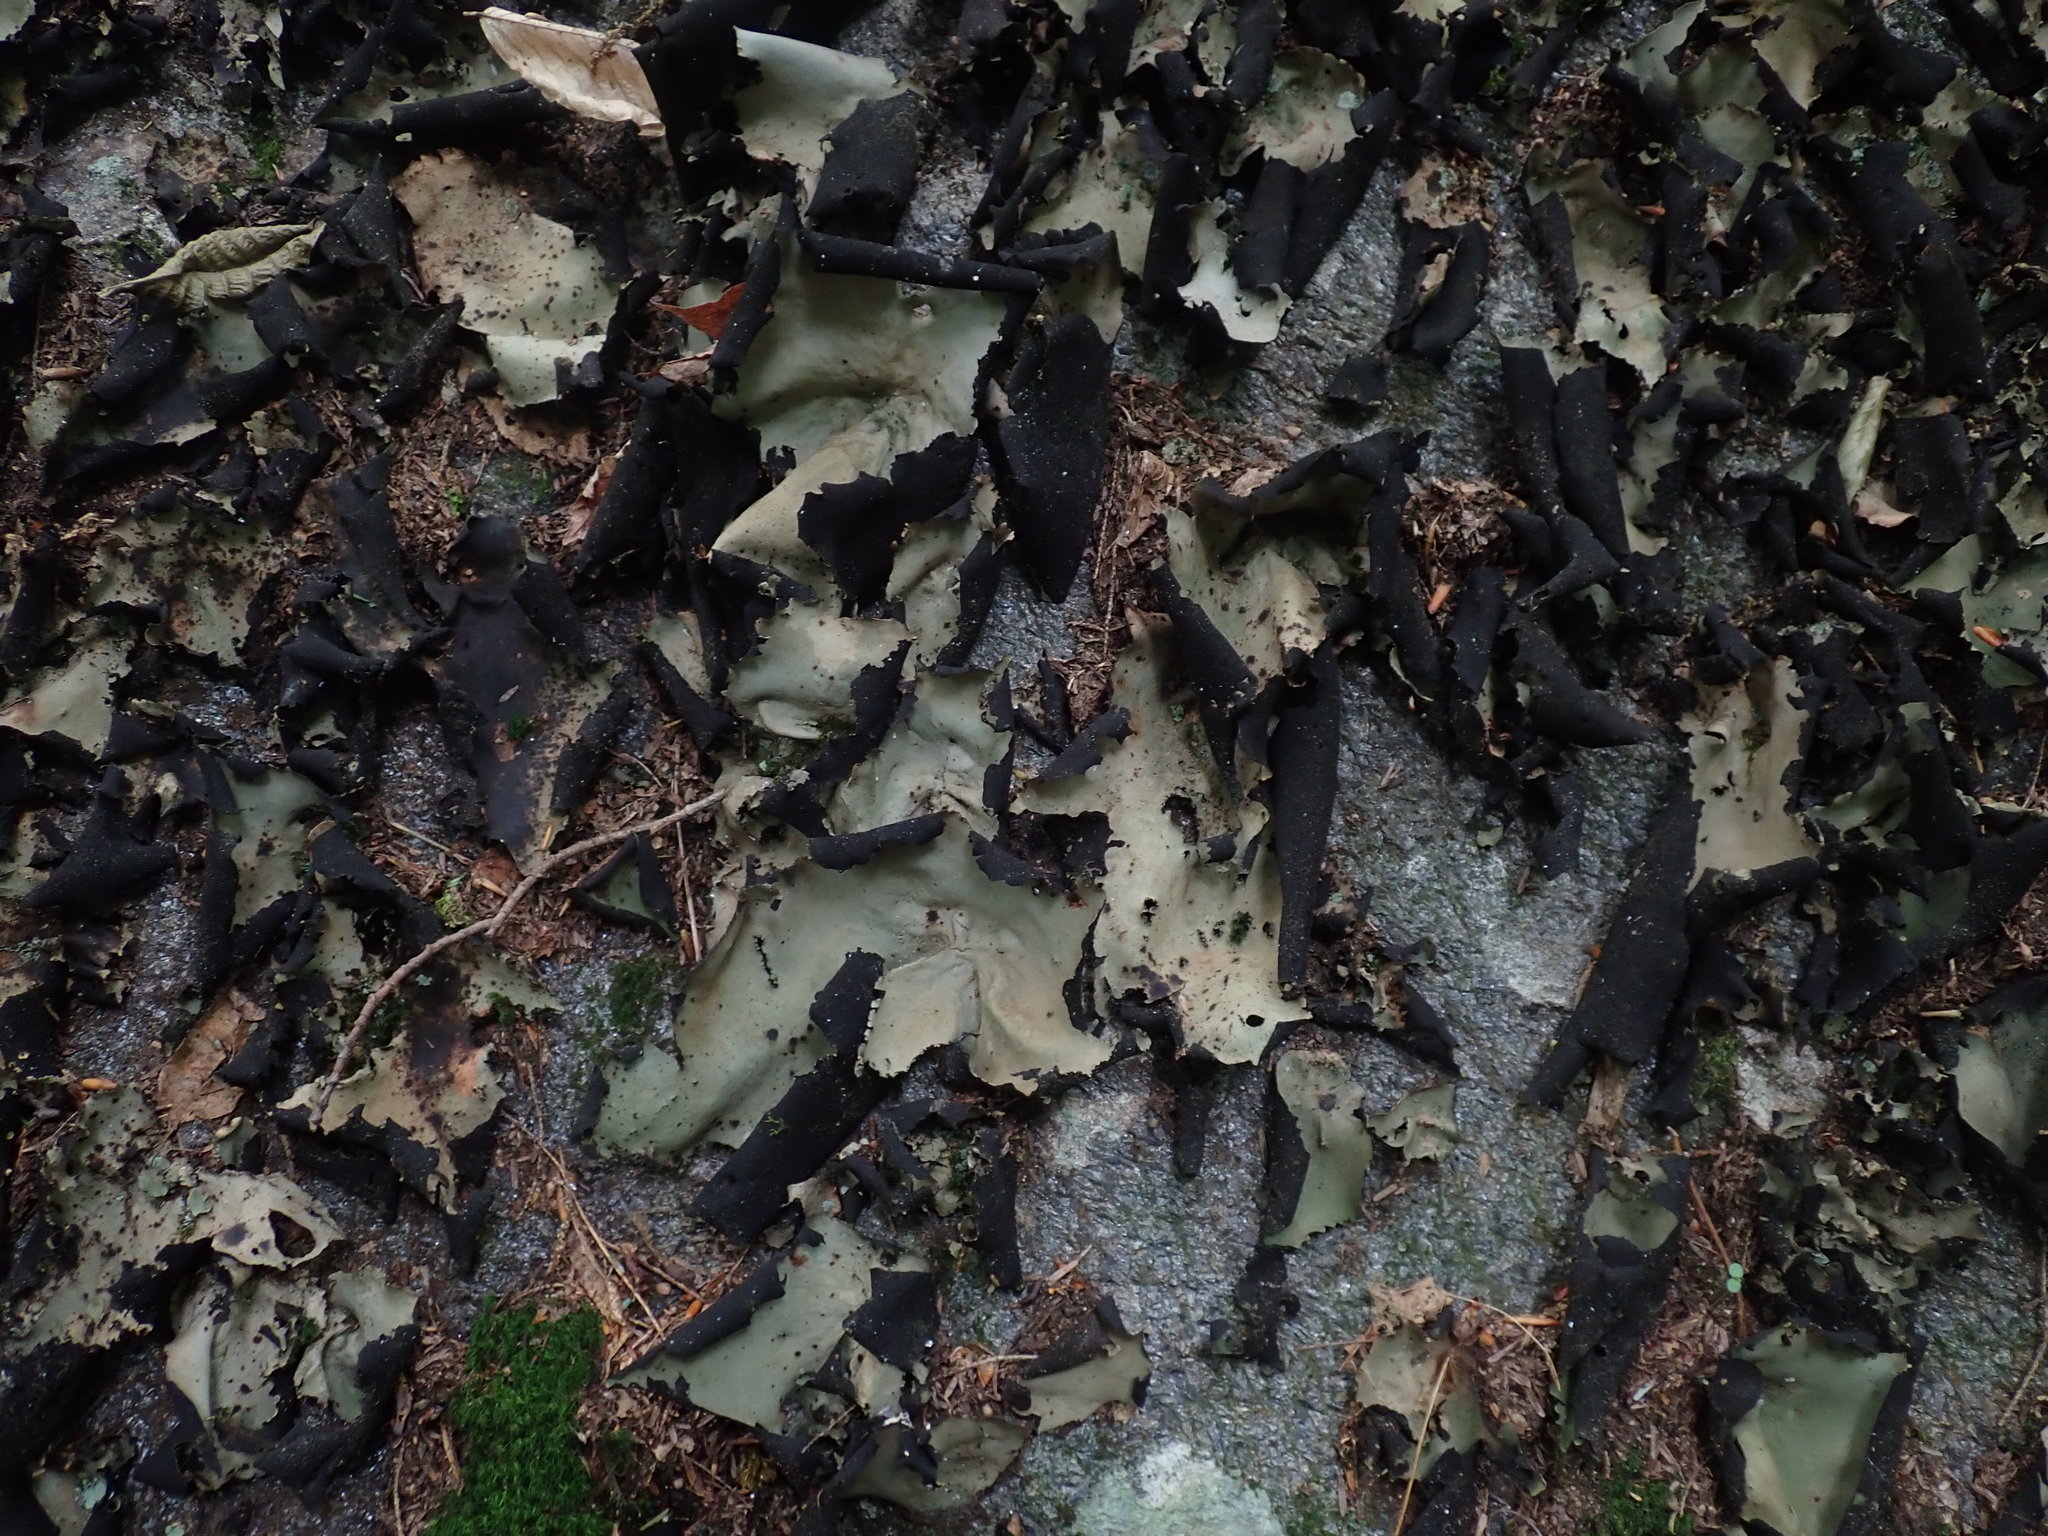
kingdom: Fungi
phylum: Ascomycota
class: Lecanoromycetes
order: Umbilicariales
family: Umbilicariaceae
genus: Umbilicaria
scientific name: Umbilicaria mammulata
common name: Smooth rock tripe
